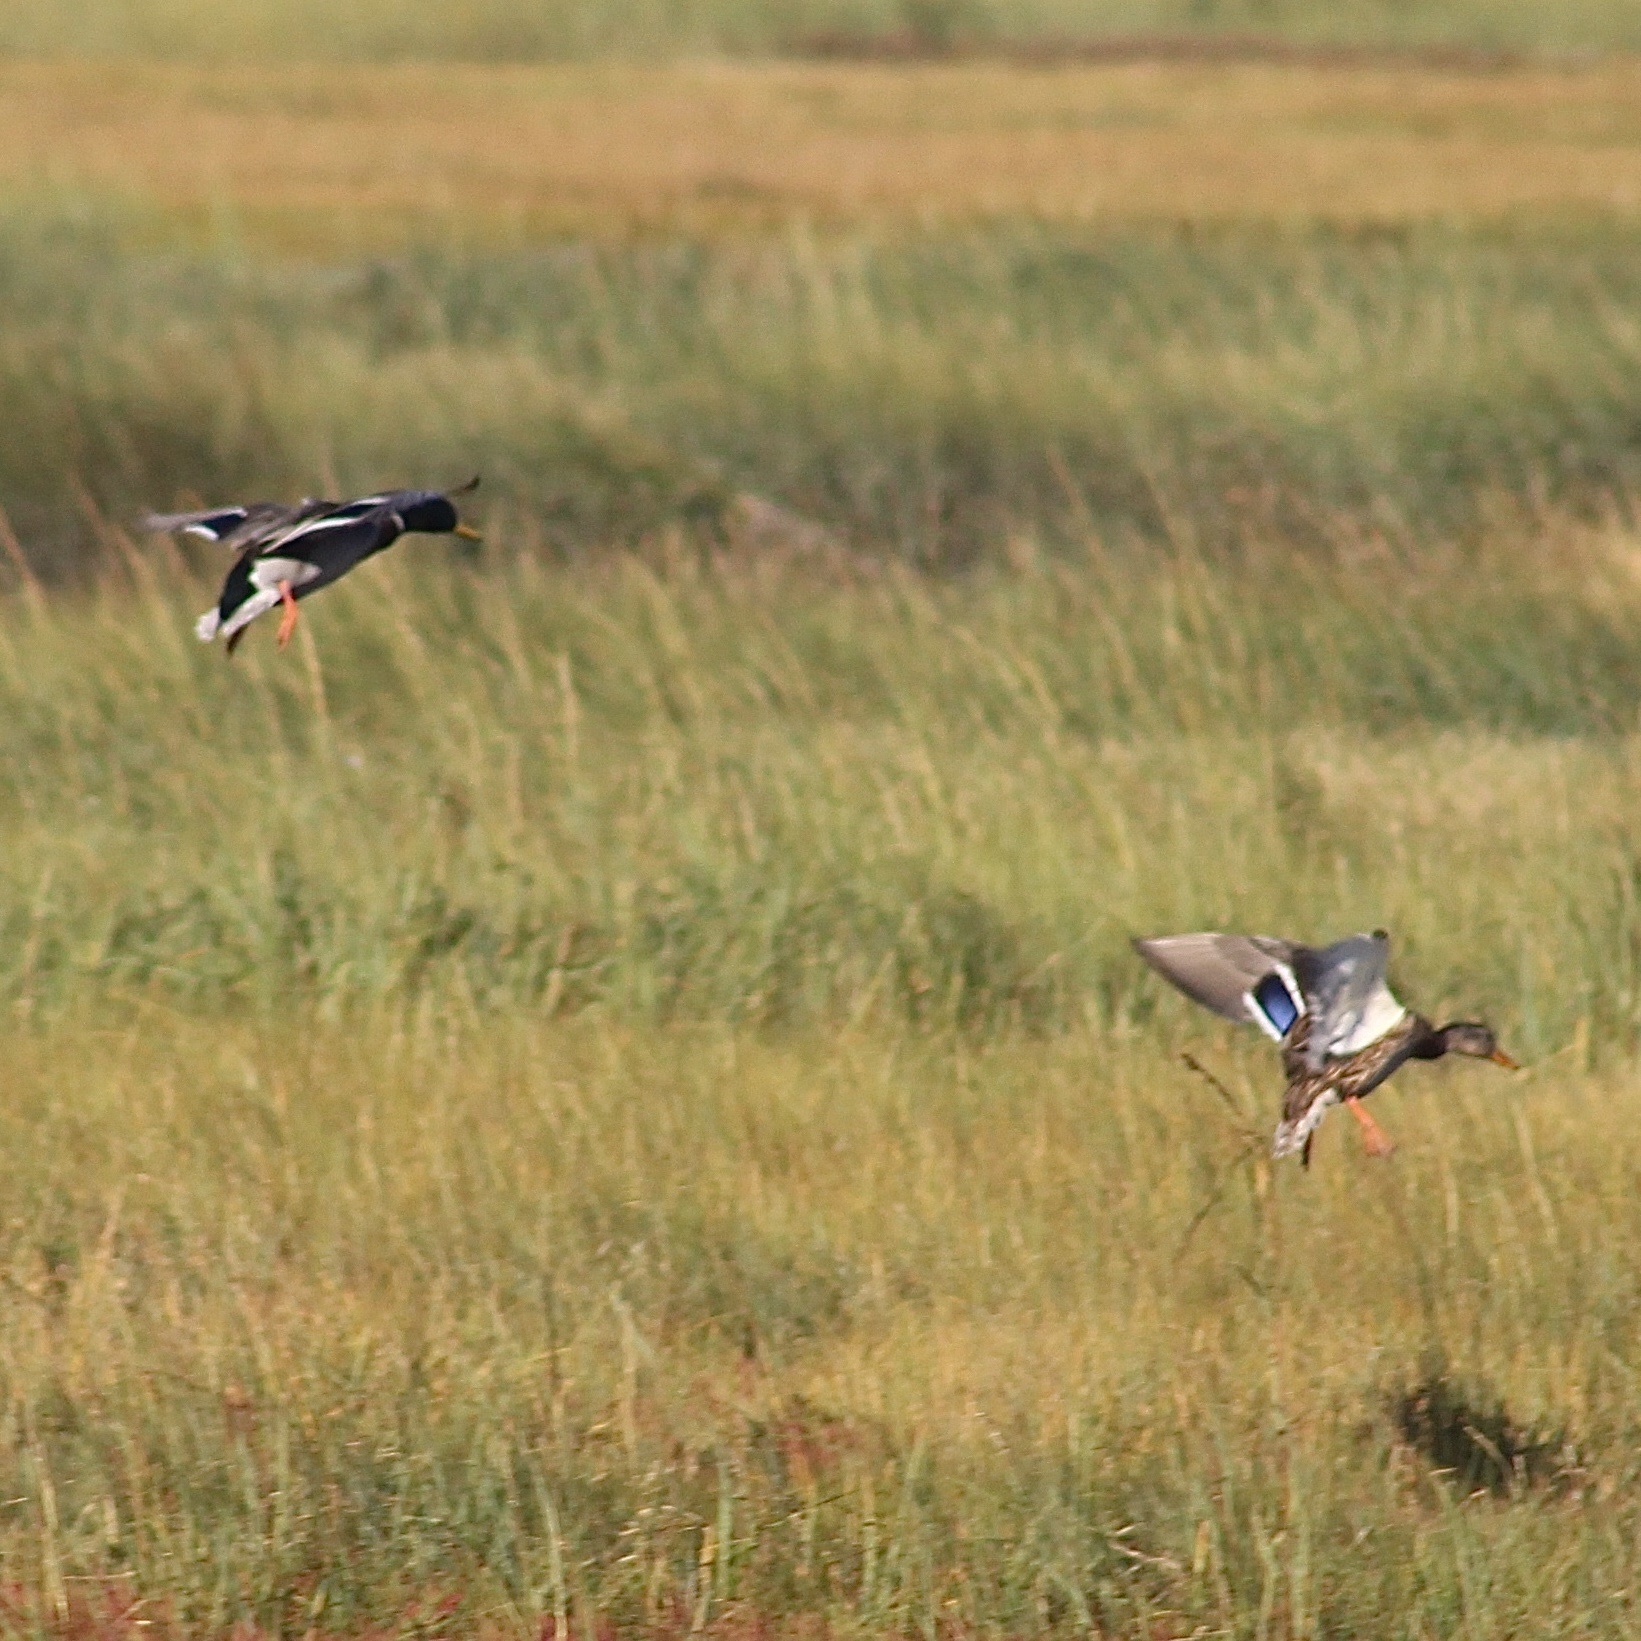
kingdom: Animalia
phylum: Chordata
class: Aves
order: Anseriformes
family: Anatidae
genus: Anas
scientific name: Anas platyrhynchos
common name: Mallard
